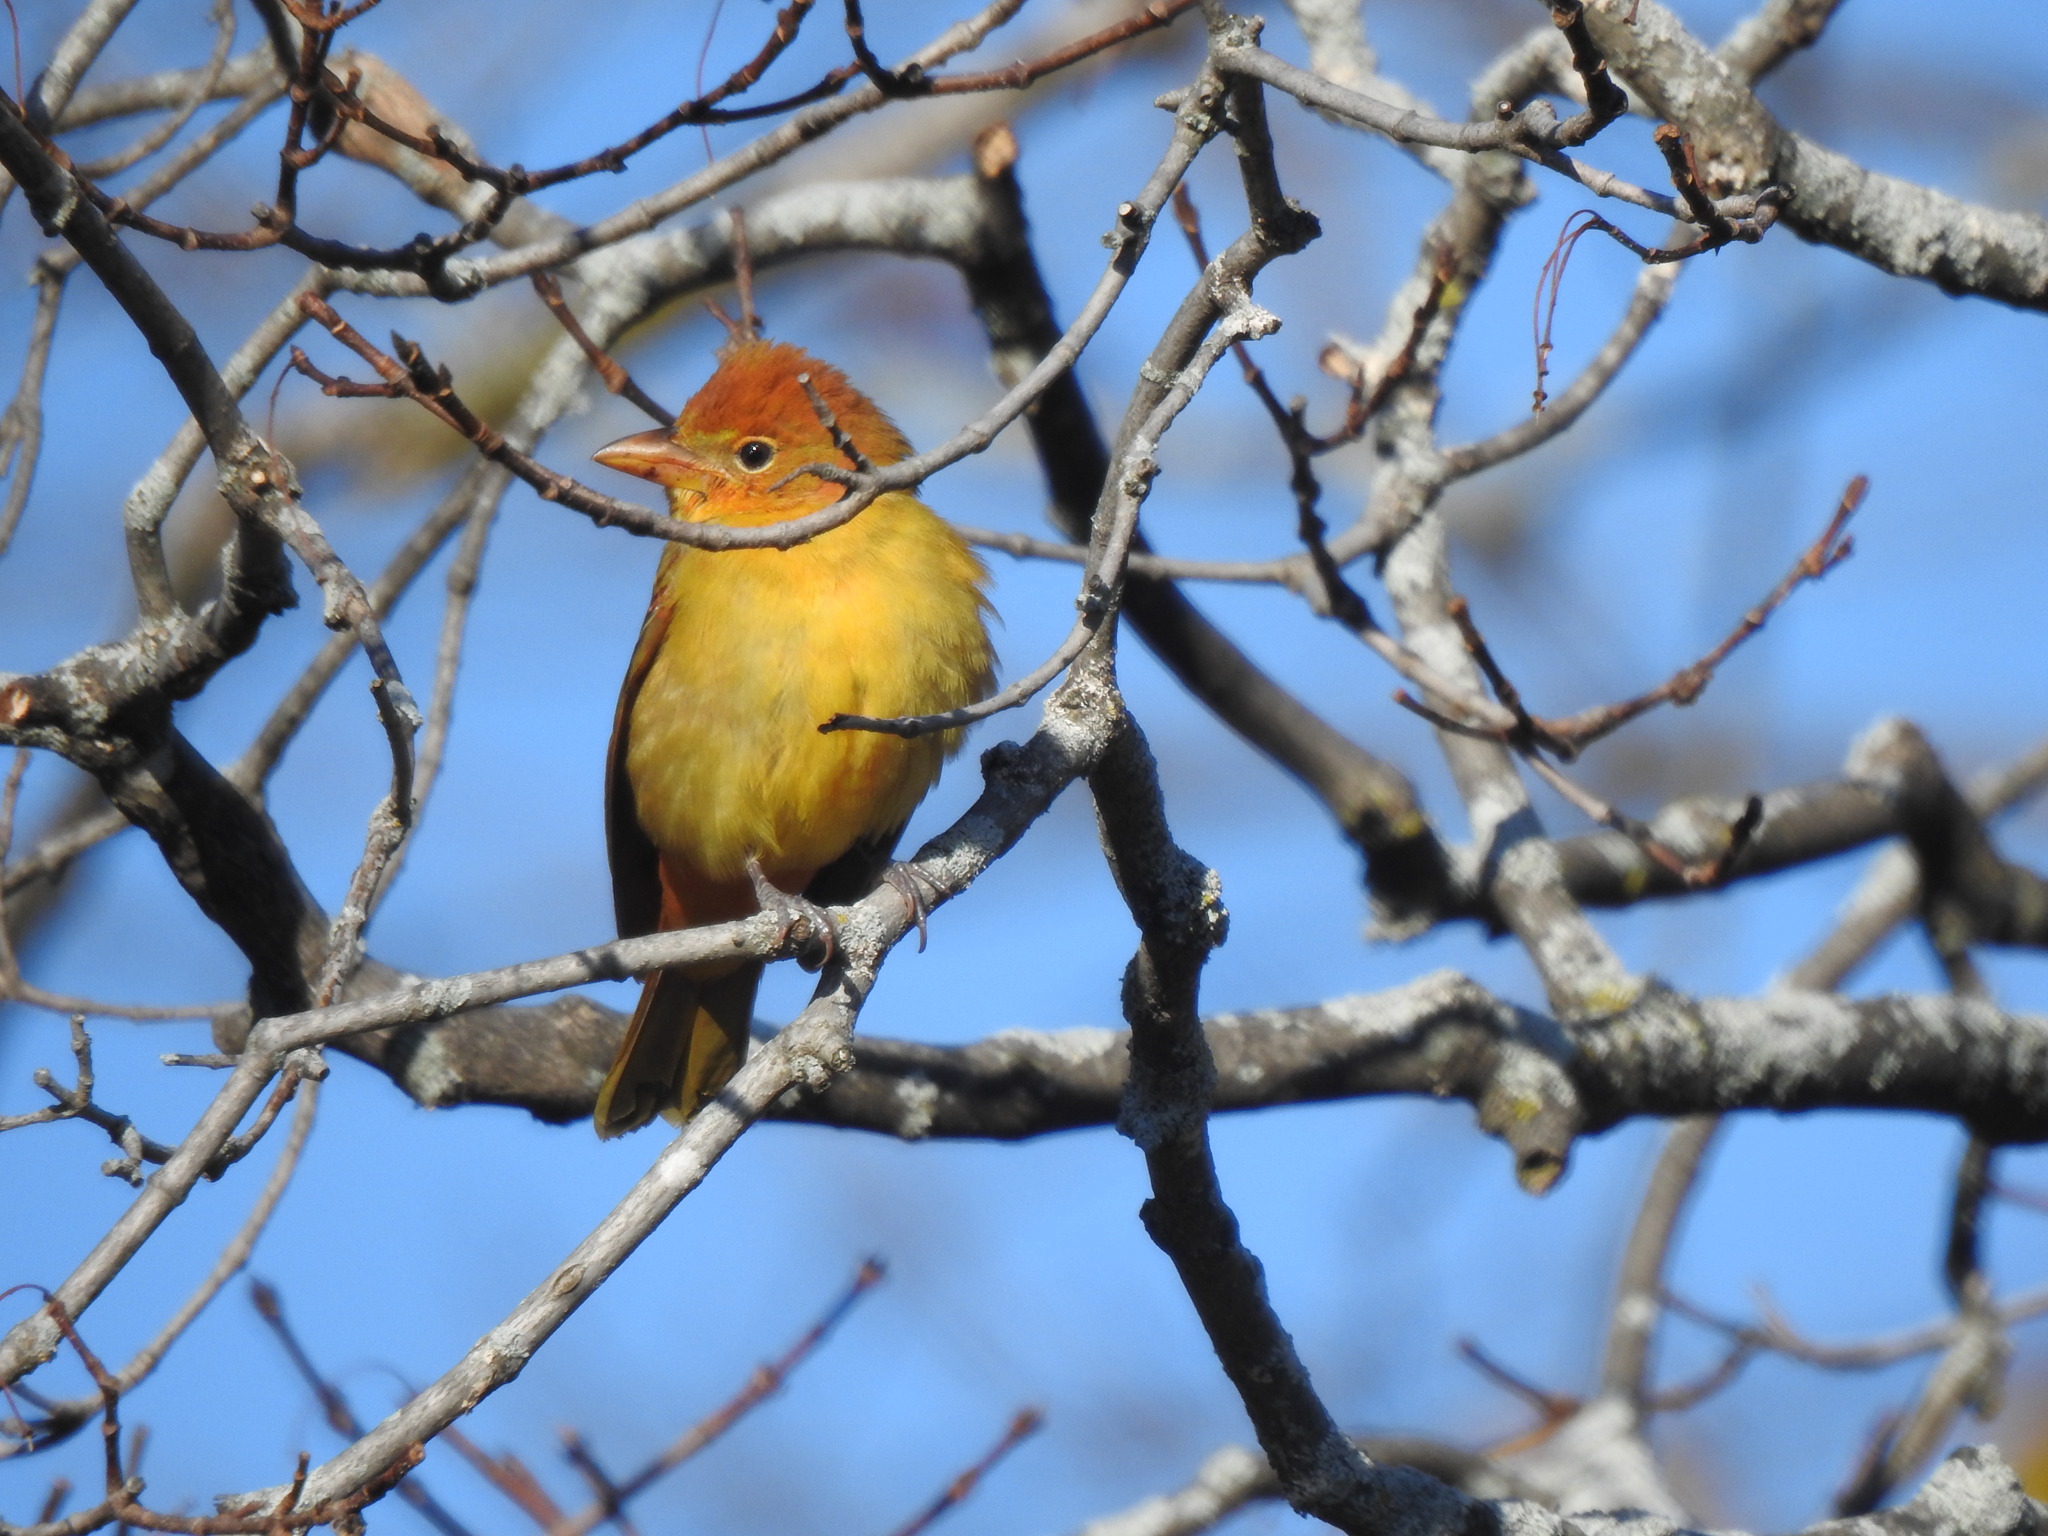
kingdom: Animalia
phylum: Chordata
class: Aves
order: Passeriformes
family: Cardinalidae
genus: Piranga
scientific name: Piranga rubra
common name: Summer tanager
